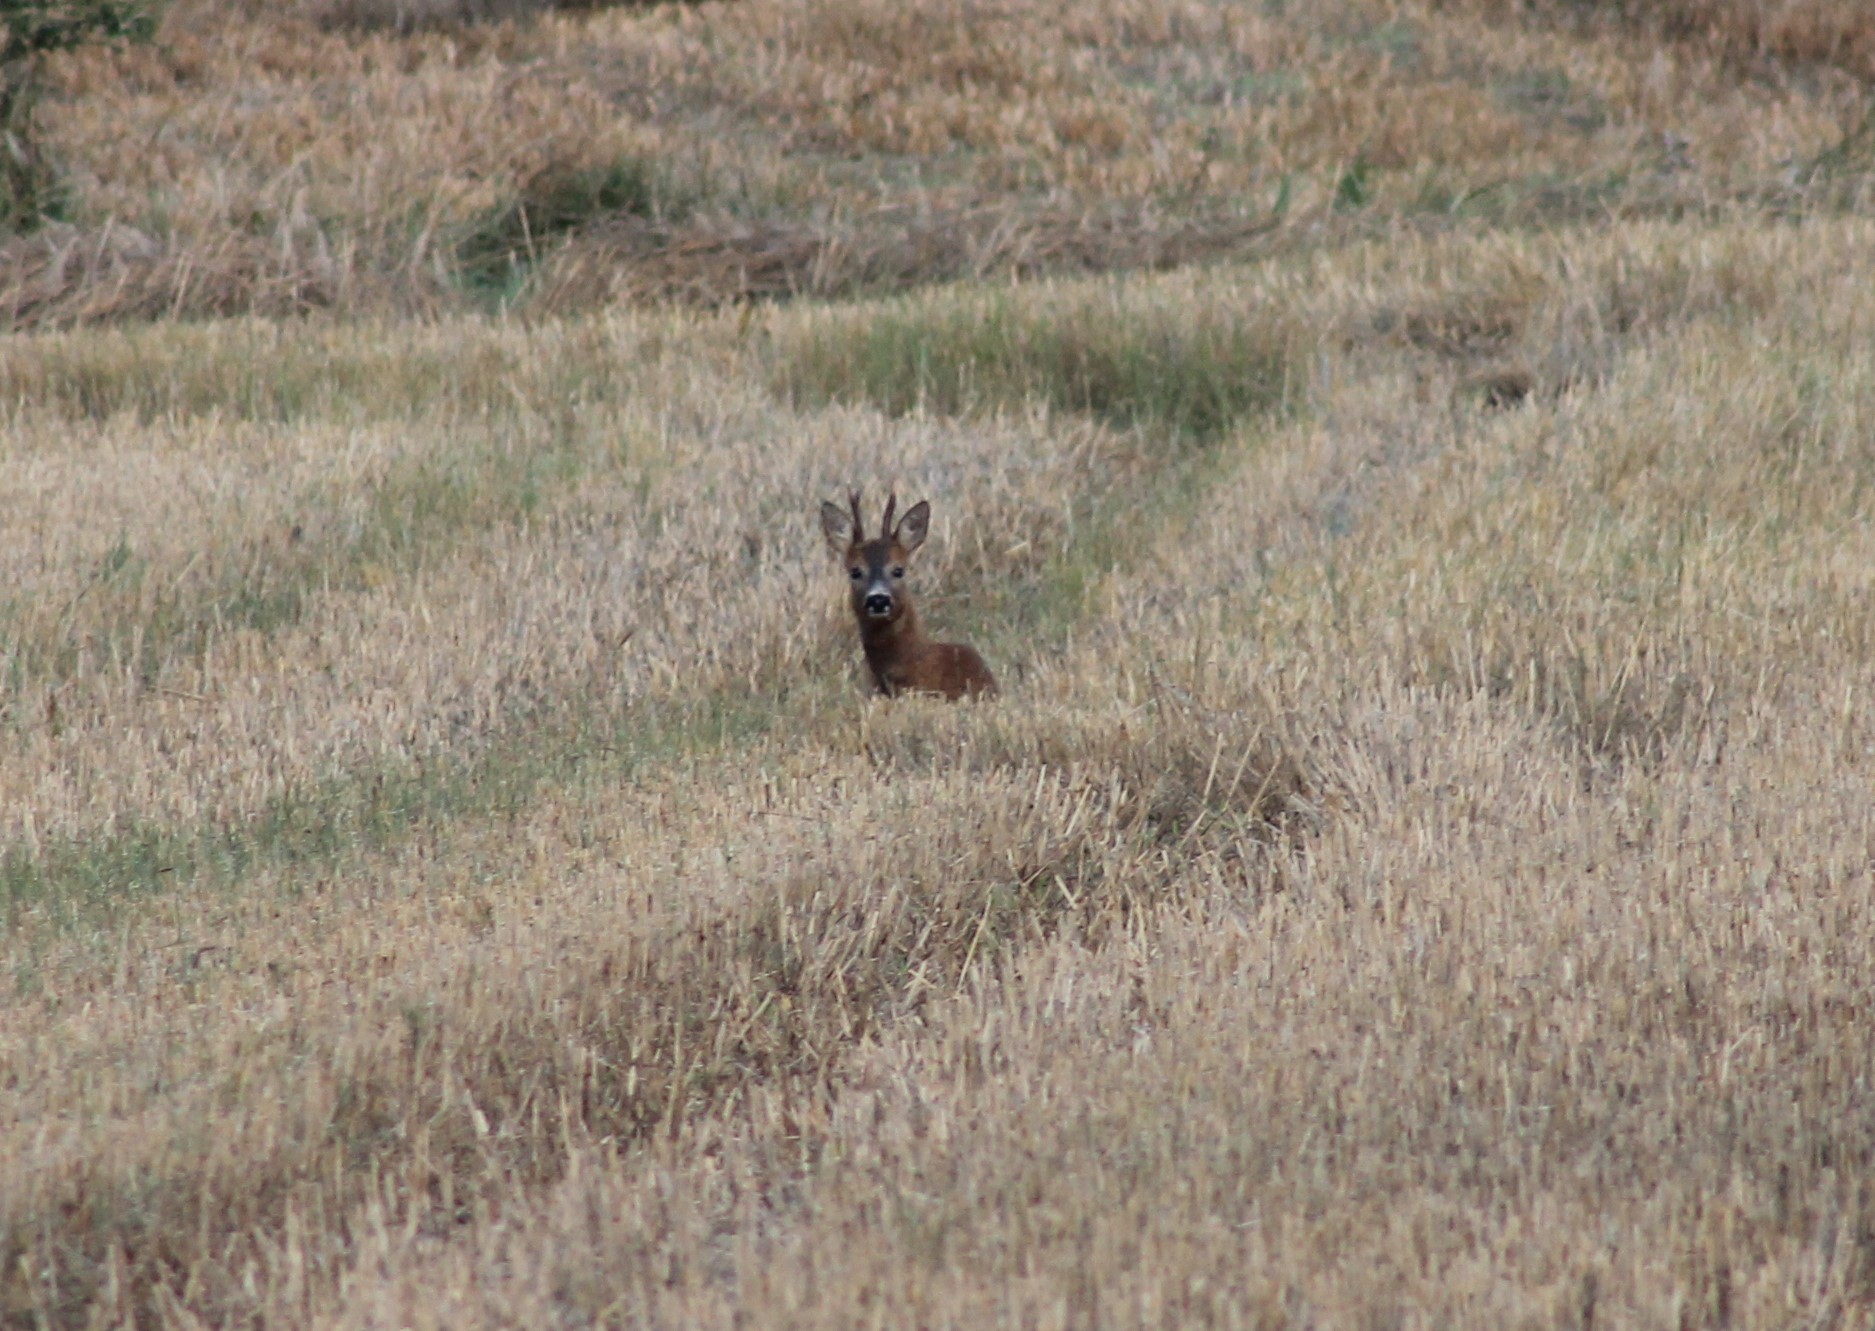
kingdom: Animalia
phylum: Chordata
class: Mammalia
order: Artiodactyla
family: Cervidae
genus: Capreolus
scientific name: Capreolus capreolus
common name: Western roe deer
